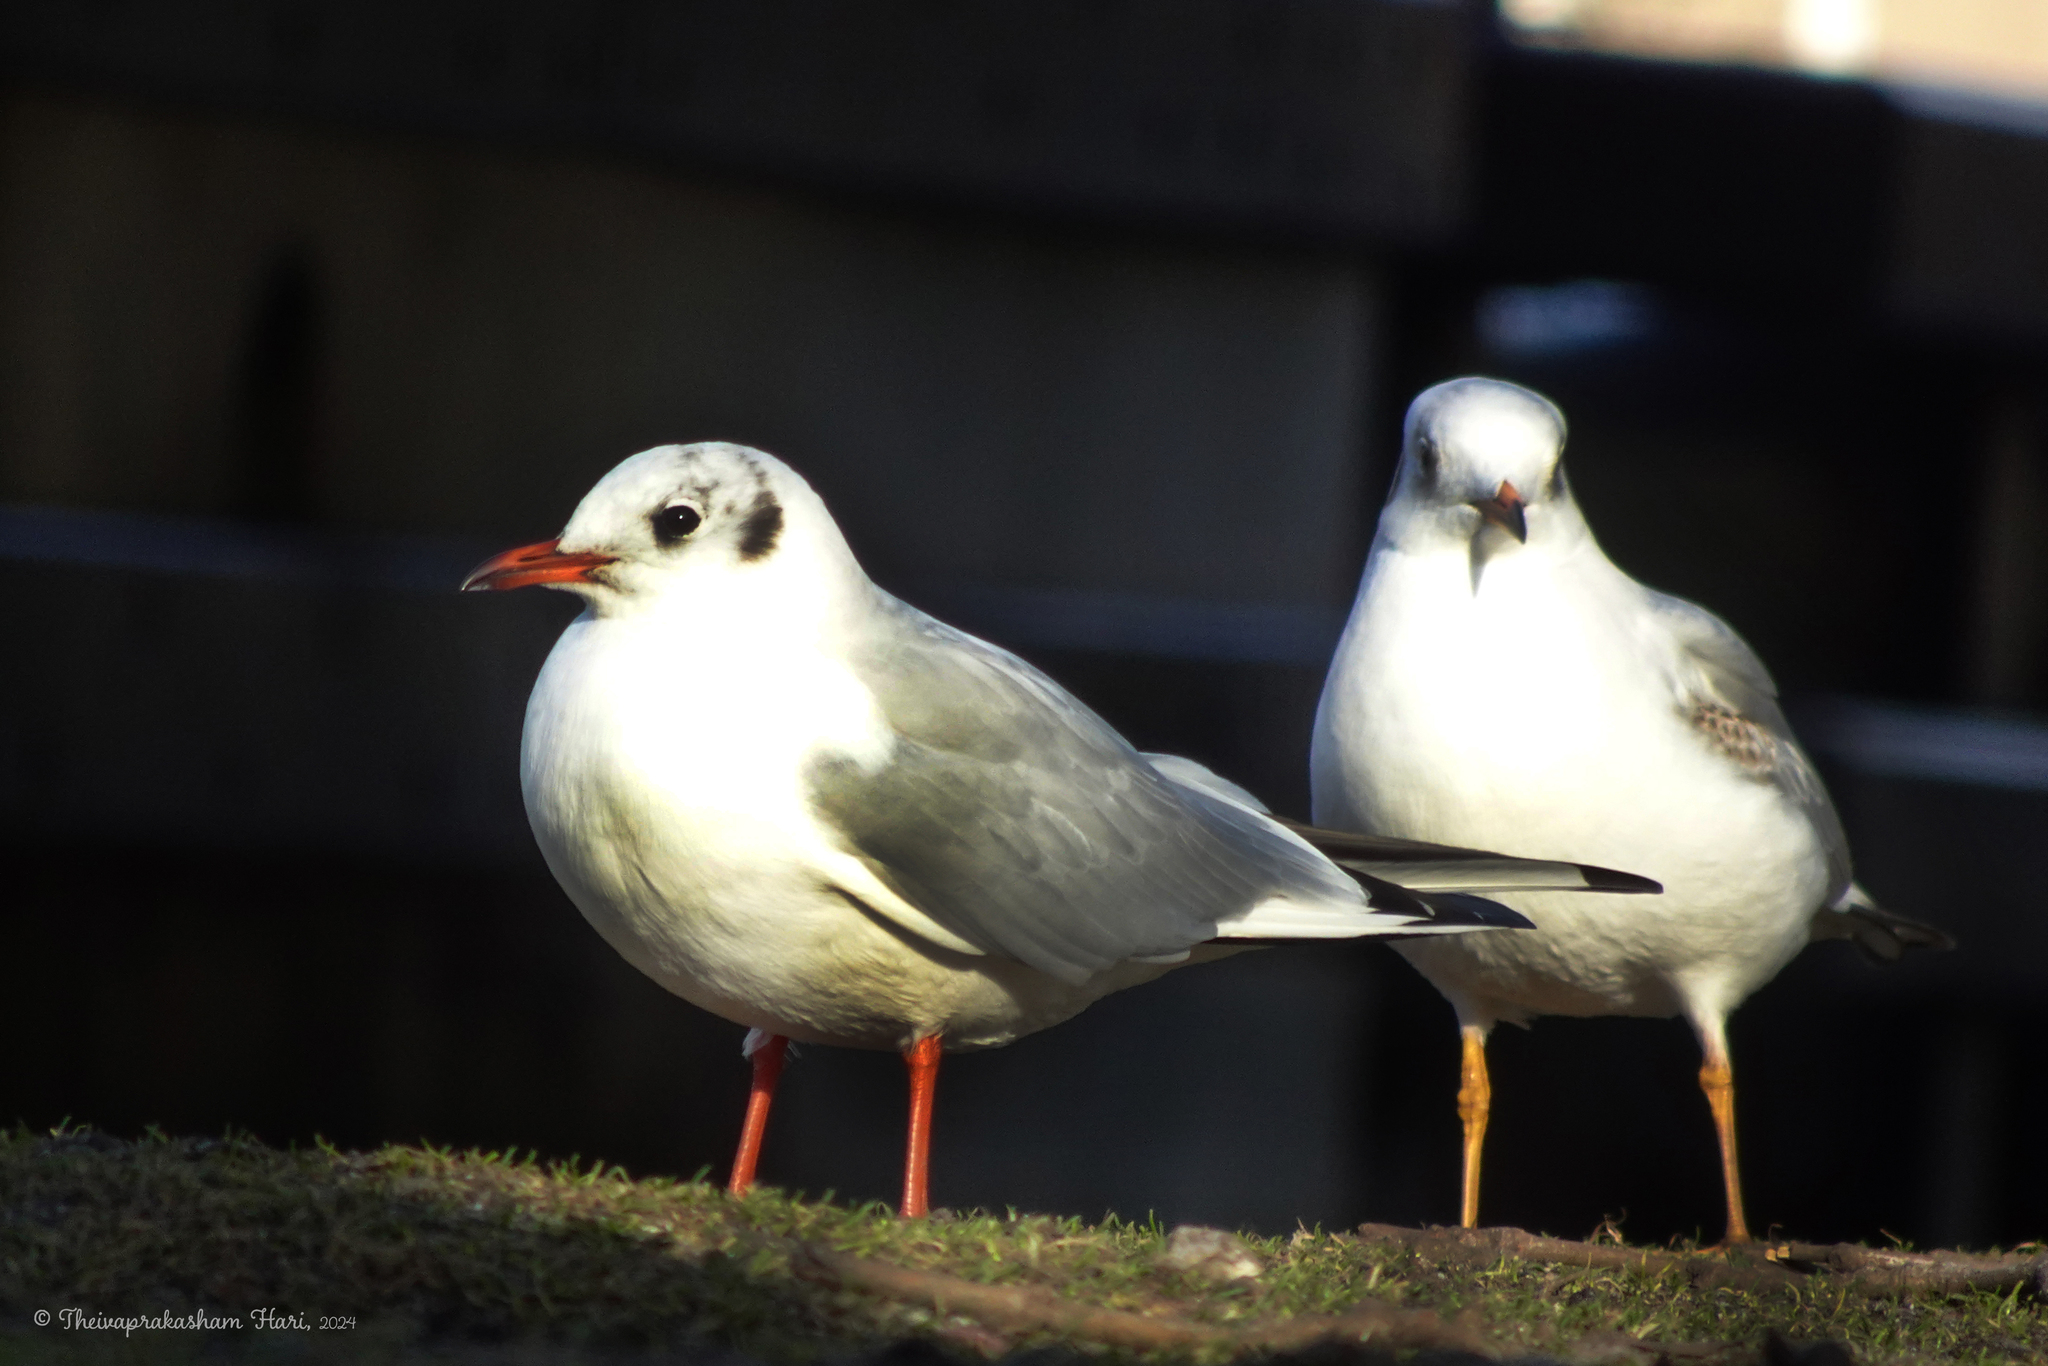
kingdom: Animalia
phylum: Chordata
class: Aves
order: Charadriiformes
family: Laridae
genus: Chroicocephalus
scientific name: Chroicocephalus ridibundus
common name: Black-headed gull
